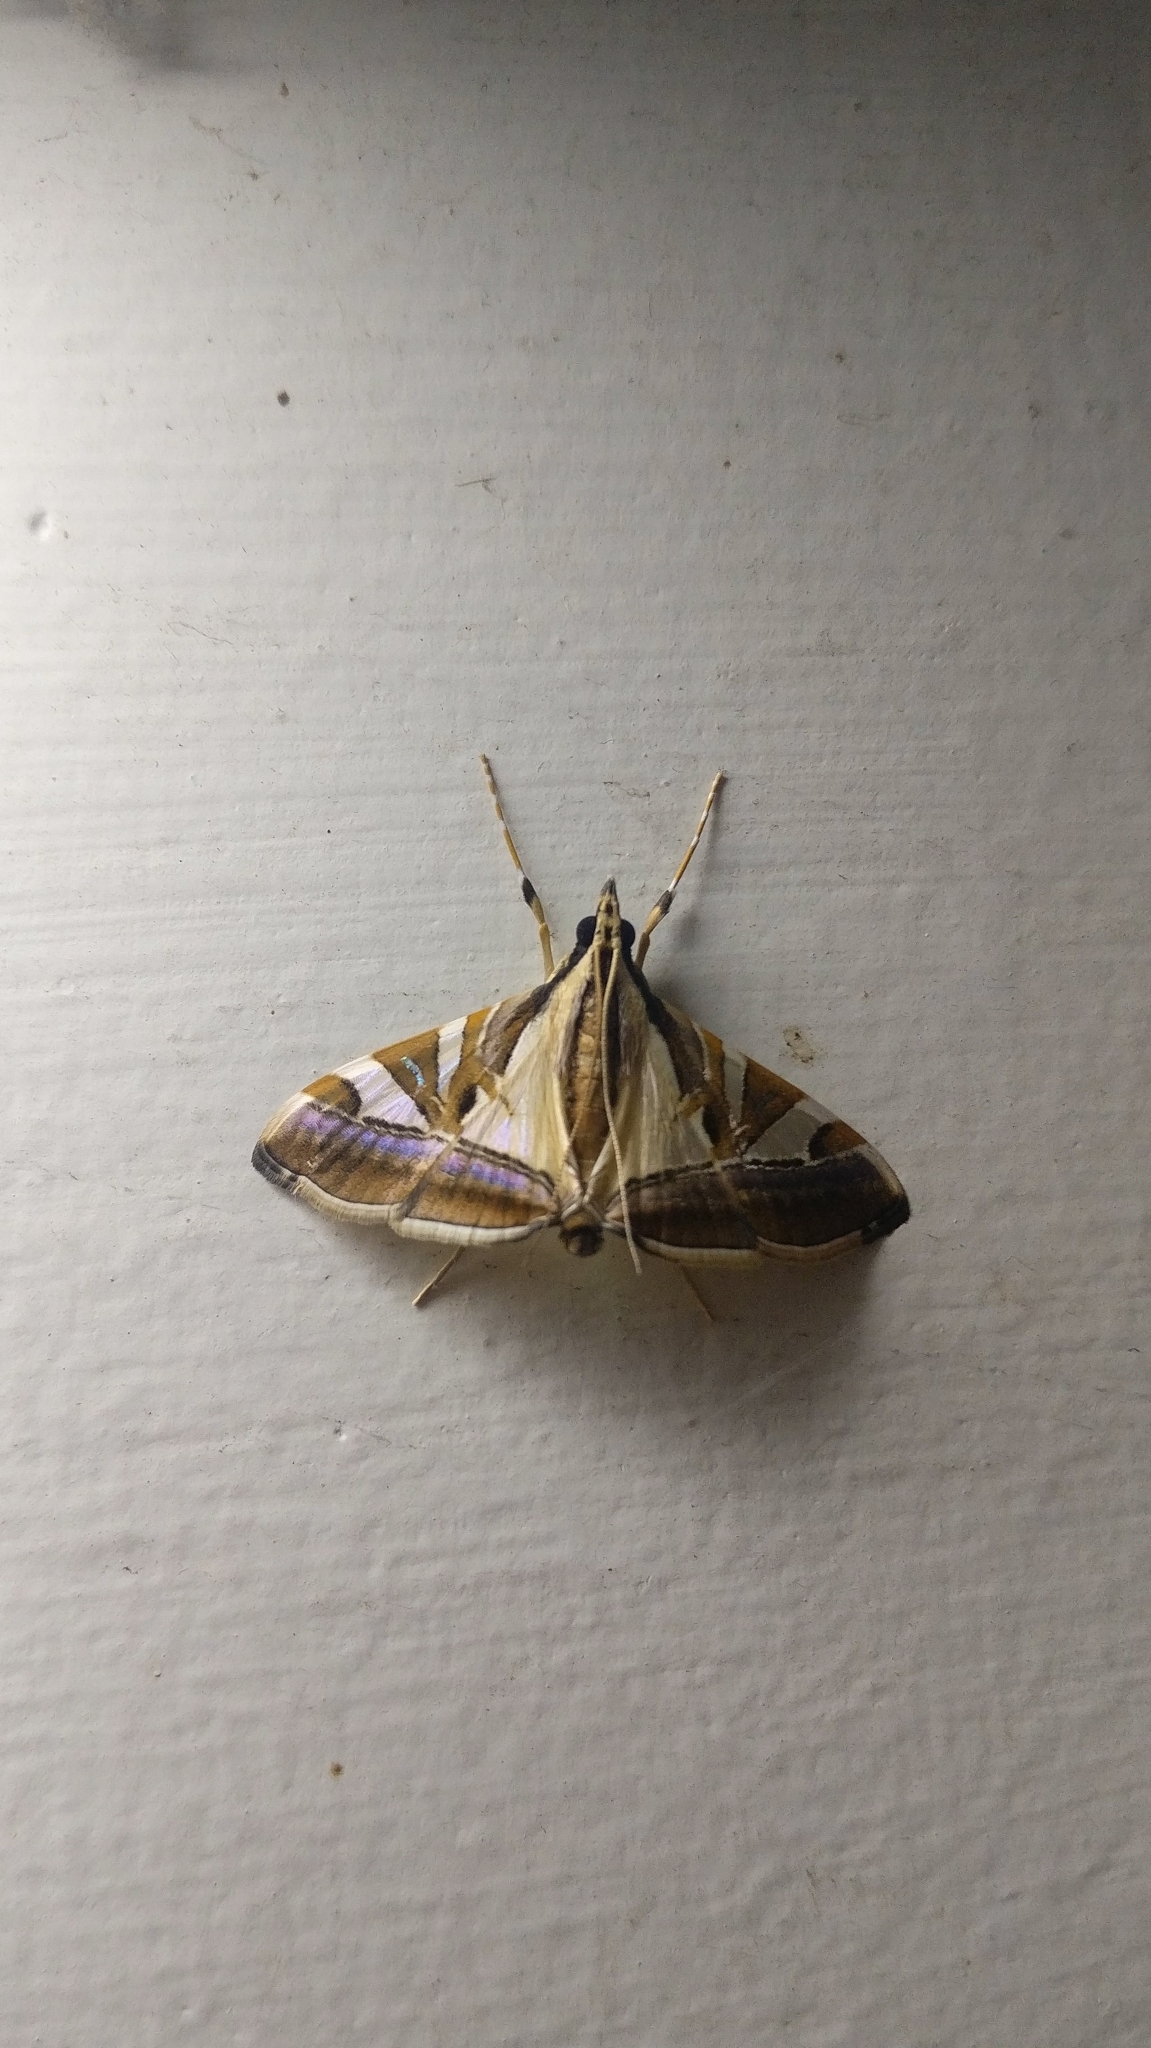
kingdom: Animalia
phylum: Arthropoda
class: Insecta
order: Lepidoptera
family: Crambidae
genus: Agrioglypta
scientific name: Agrioglypta itysalis
